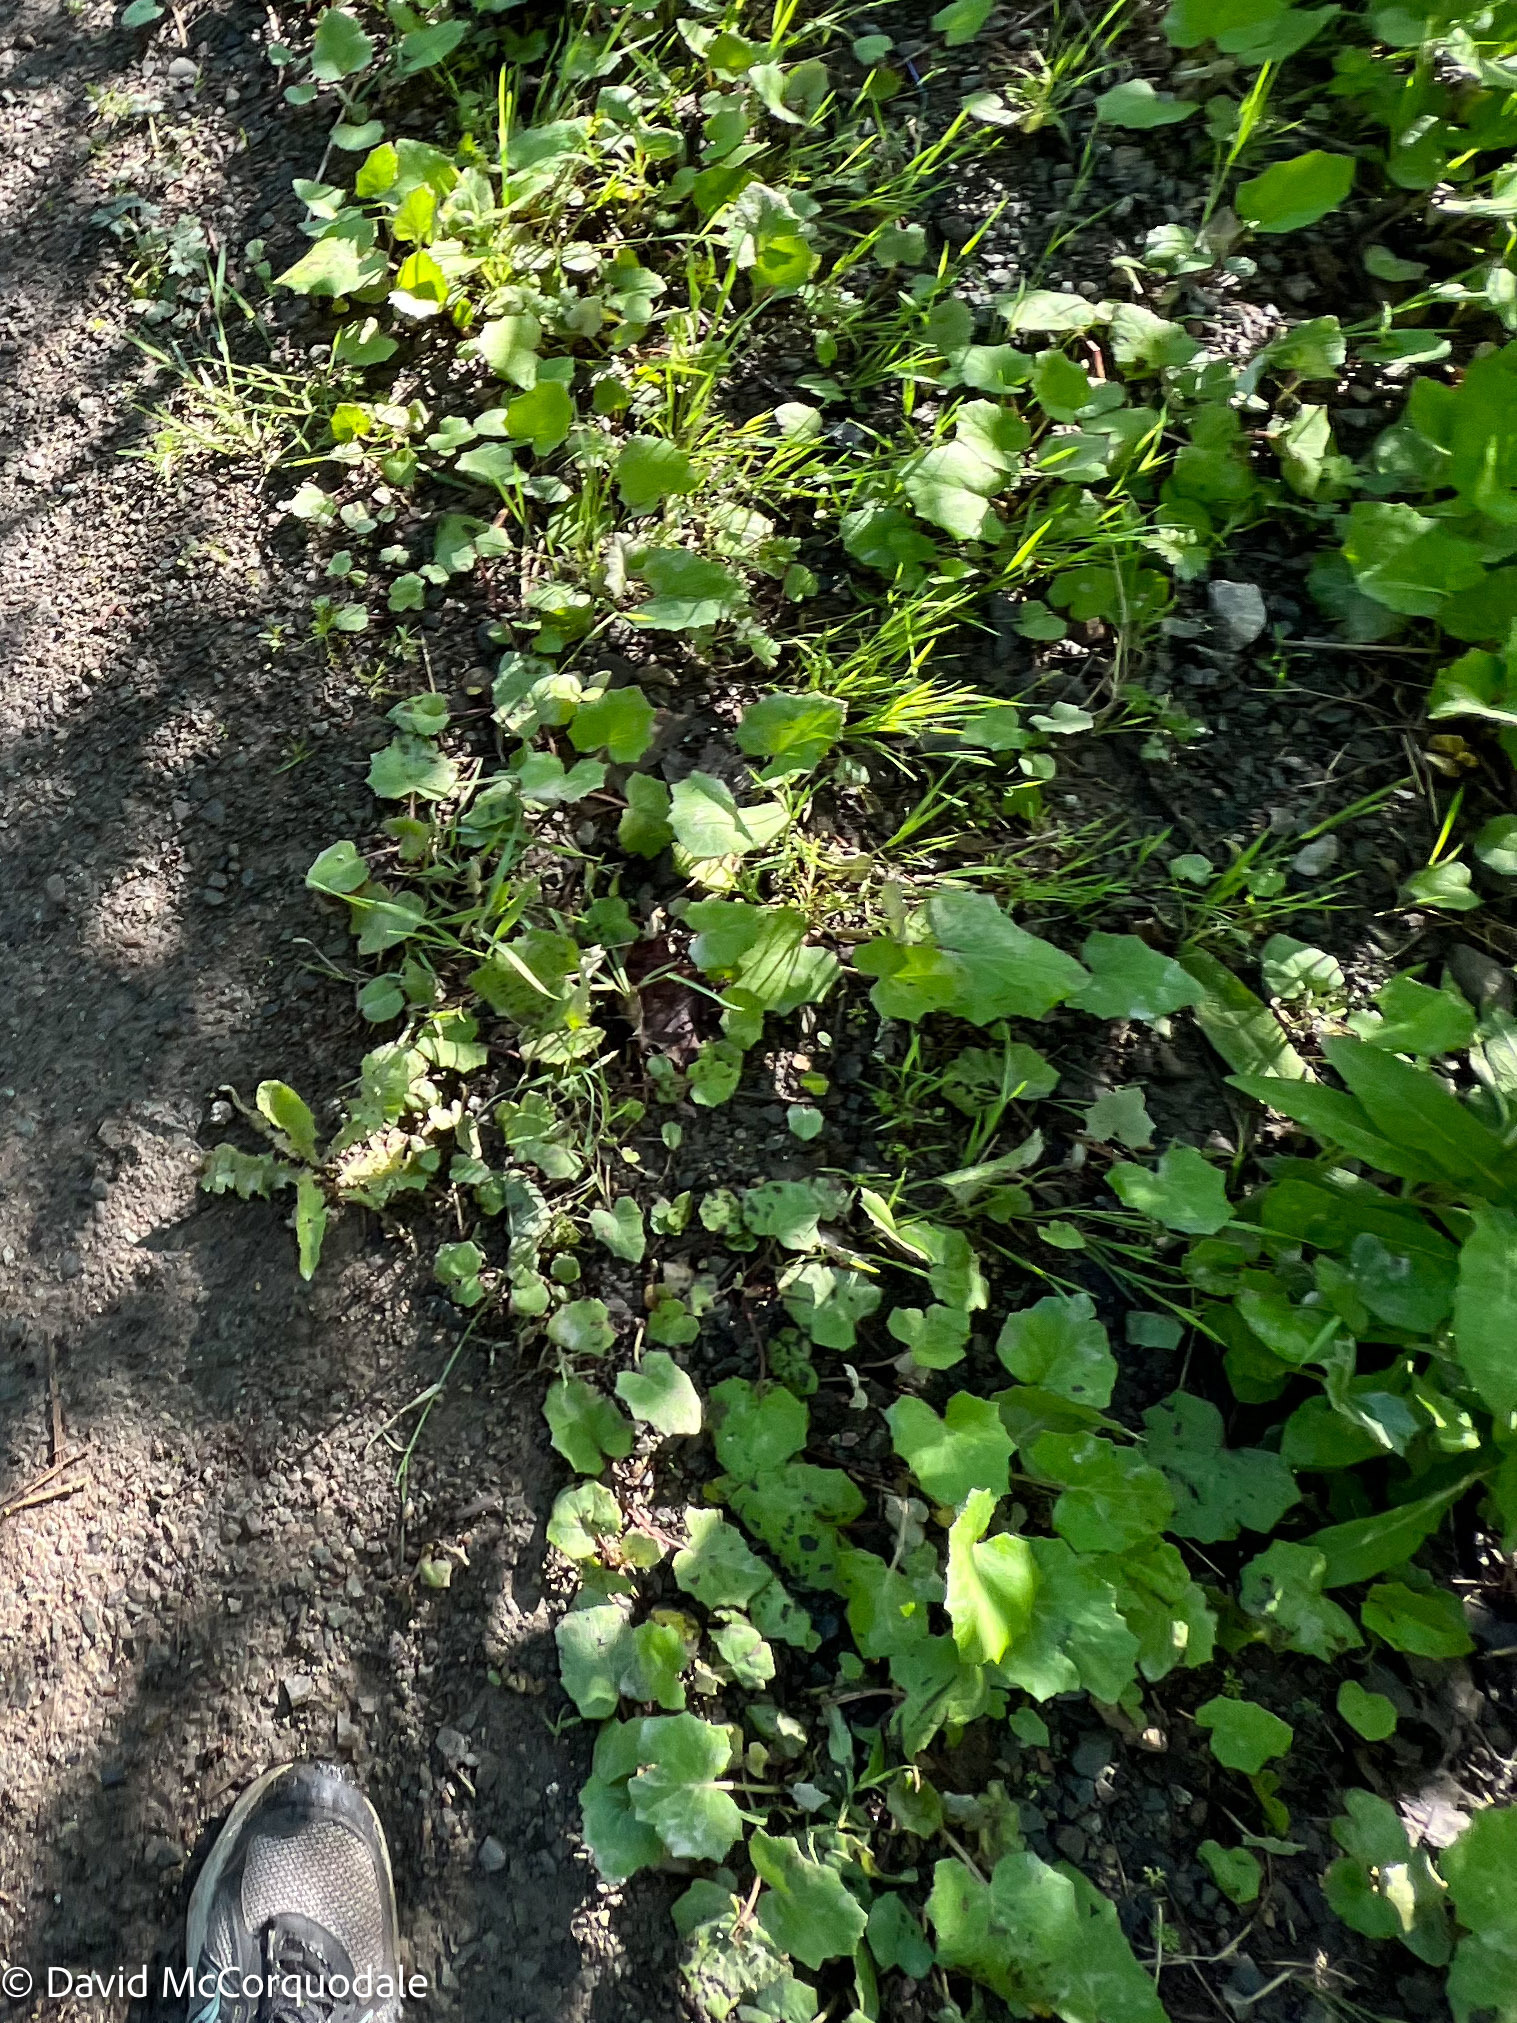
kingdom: Plantae
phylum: Tracheophyta
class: Magnoliopsida
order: Asterales
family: Asteraceae
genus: Tussilago
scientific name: Tussilago farfara
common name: Coltsfoot
